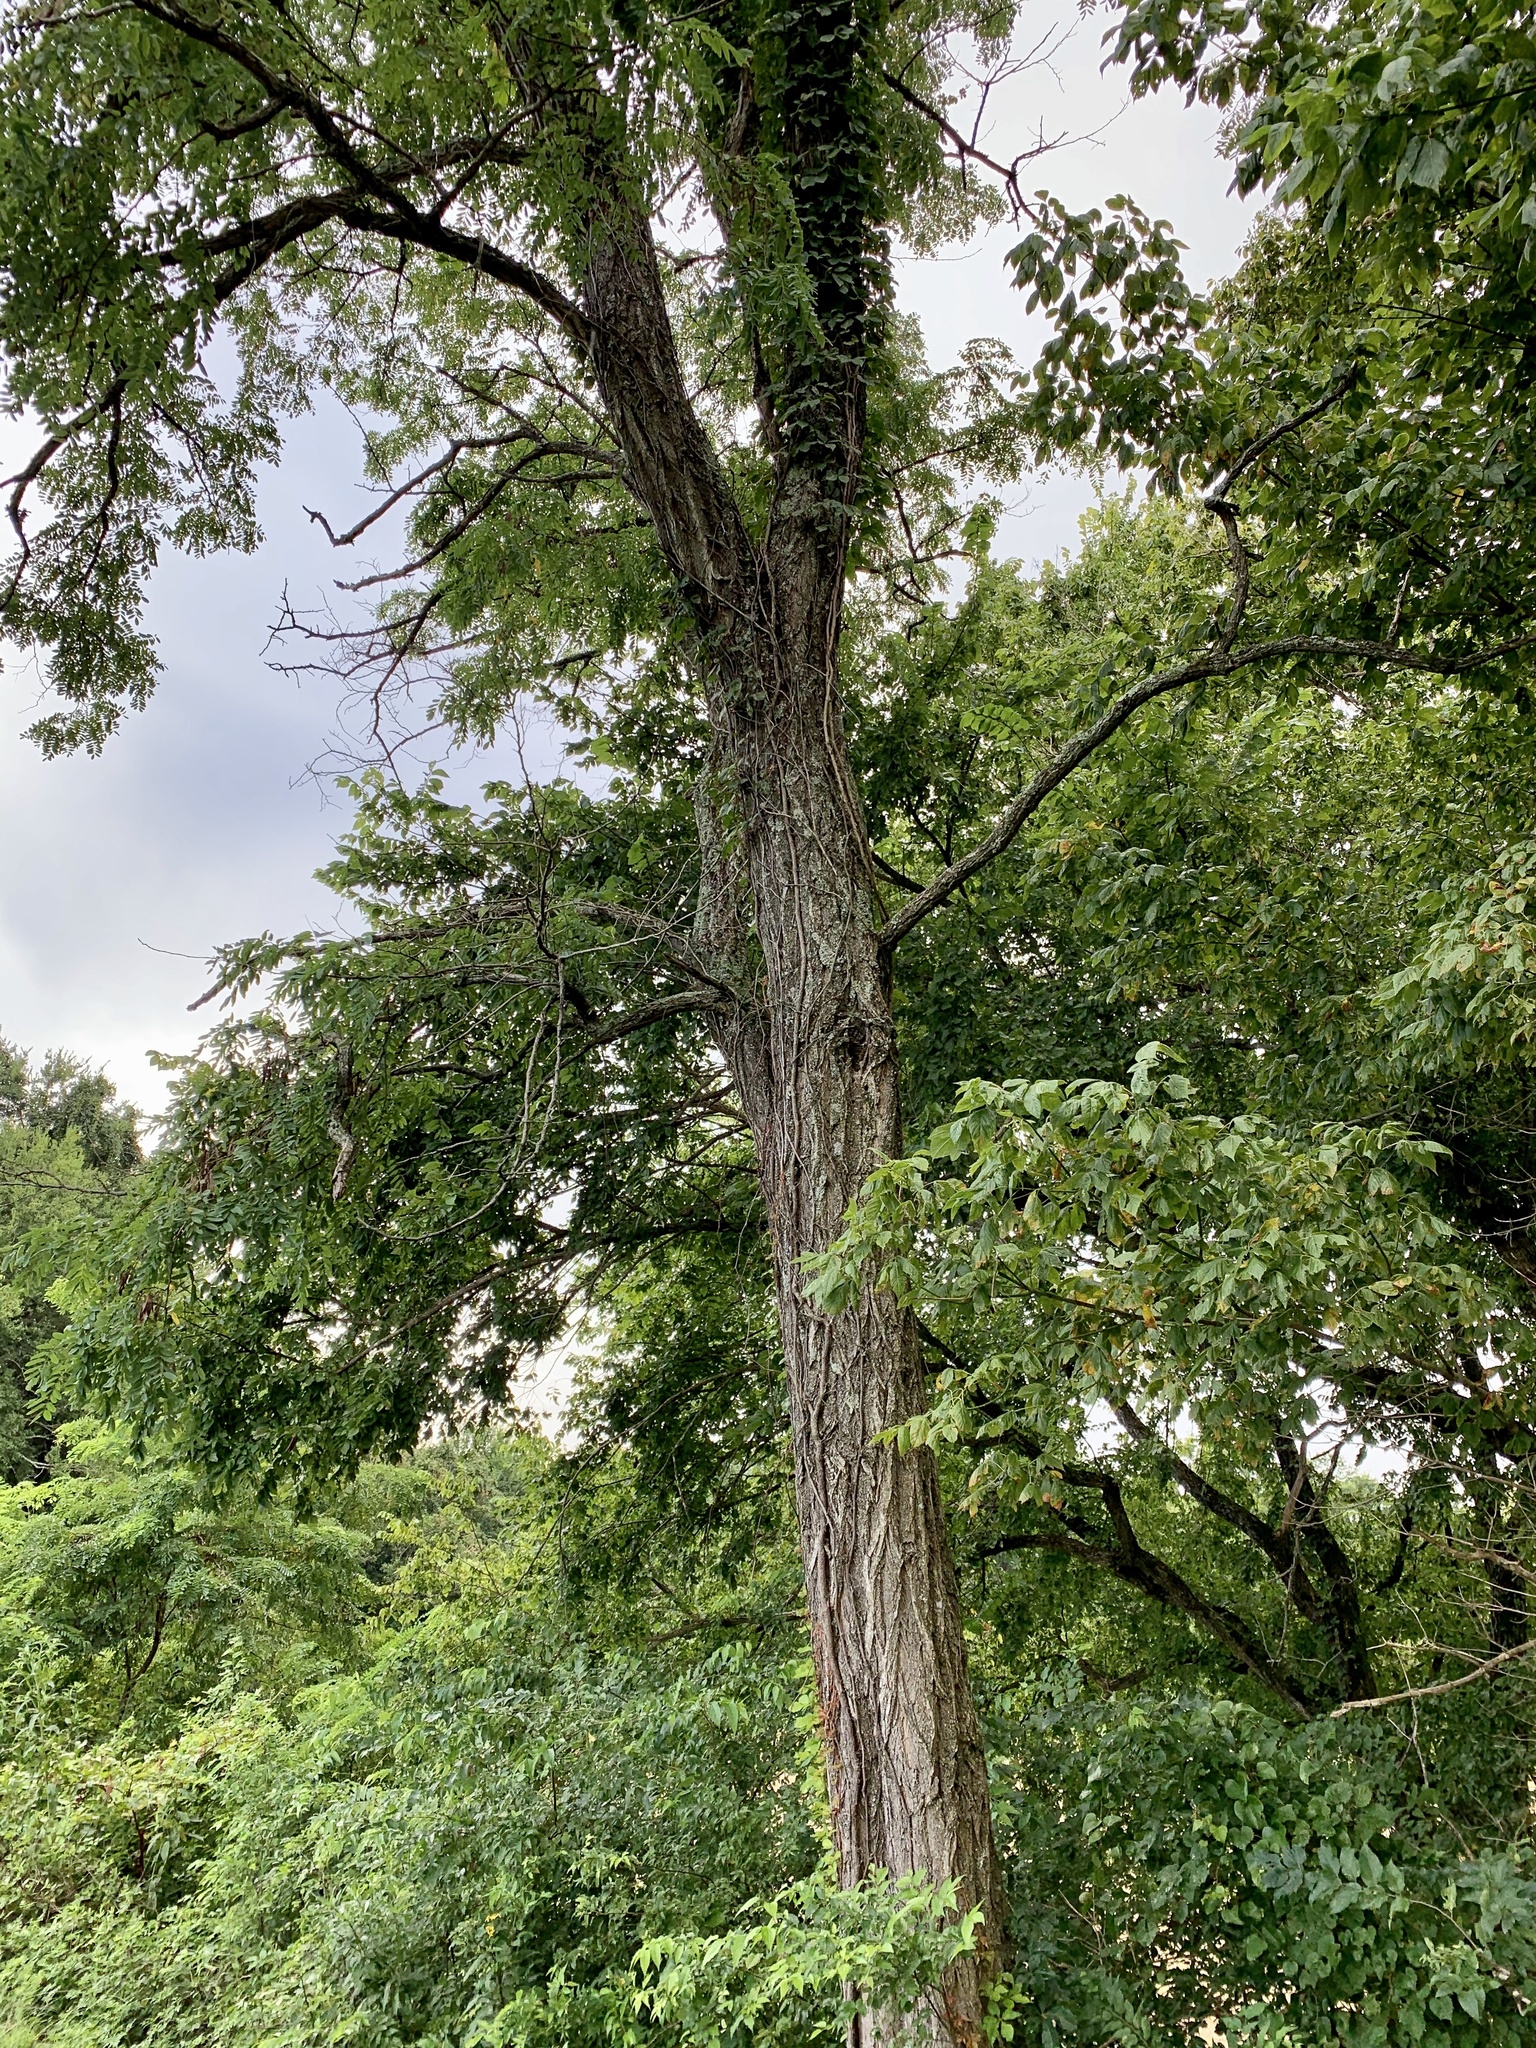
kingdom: Plantae
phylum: Tracheophyta
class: Magnoliopsida
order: Fabales
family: Fabaceae
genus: Robinia
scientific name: Robinia pseudoacacia
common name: Black locust
